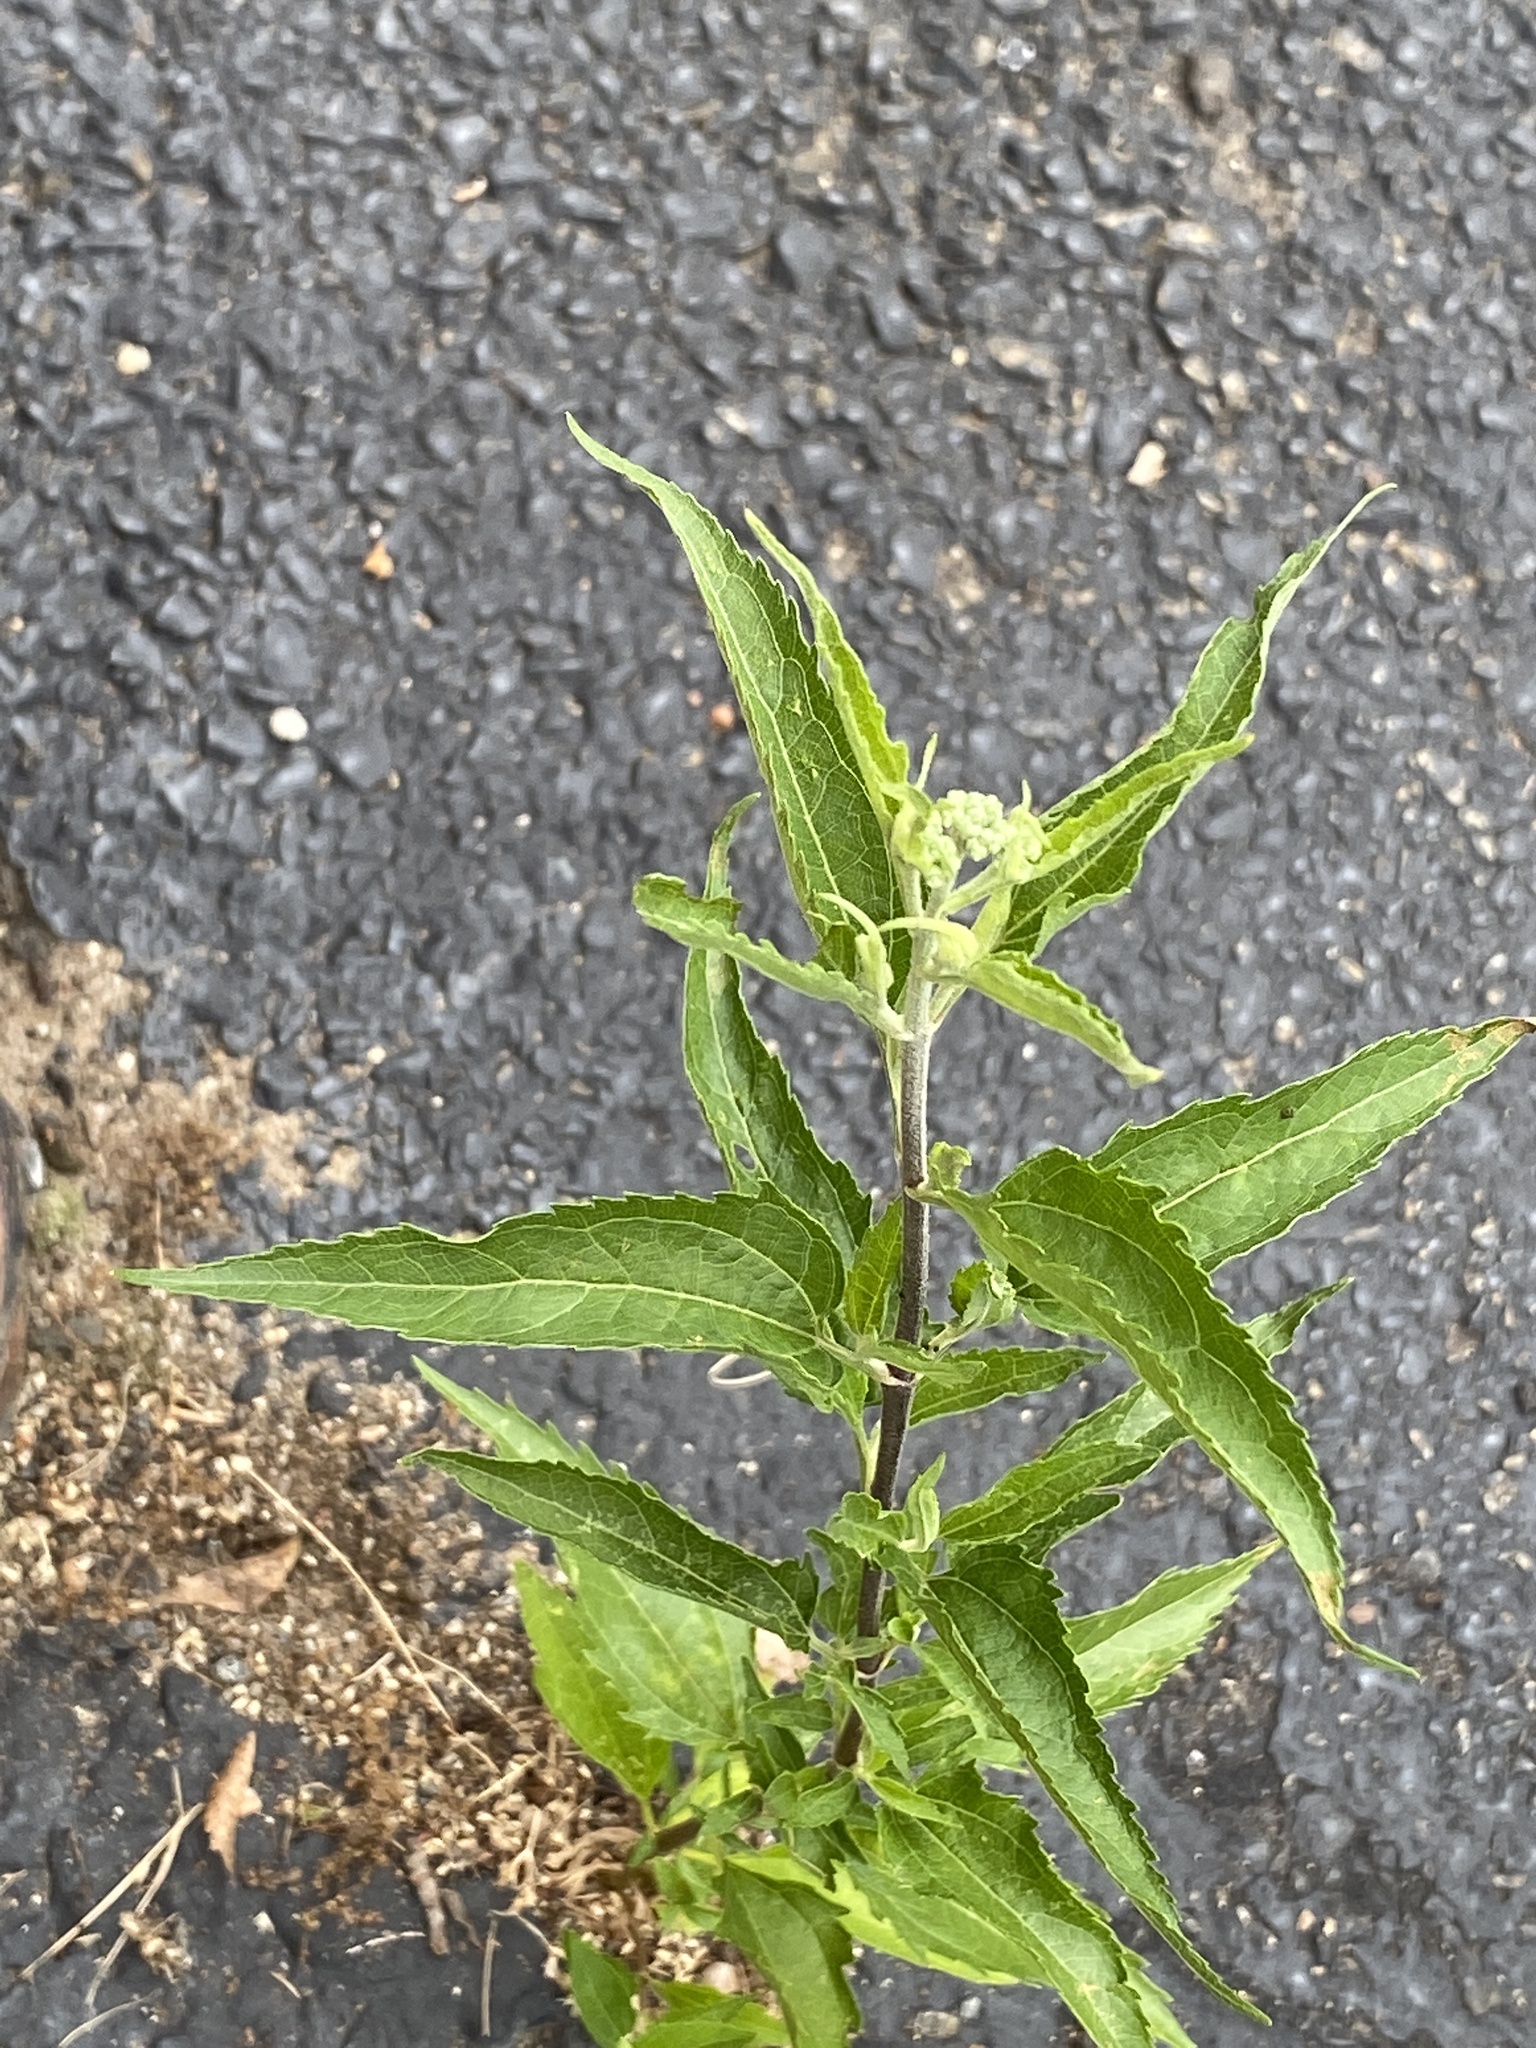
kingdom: Plantae
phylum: Tracheophyta
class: Magnoliopsida
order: Asterales
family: Asteraceae
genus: Eupatorium
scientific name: Eupatorium serotinum
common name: Late boneset
